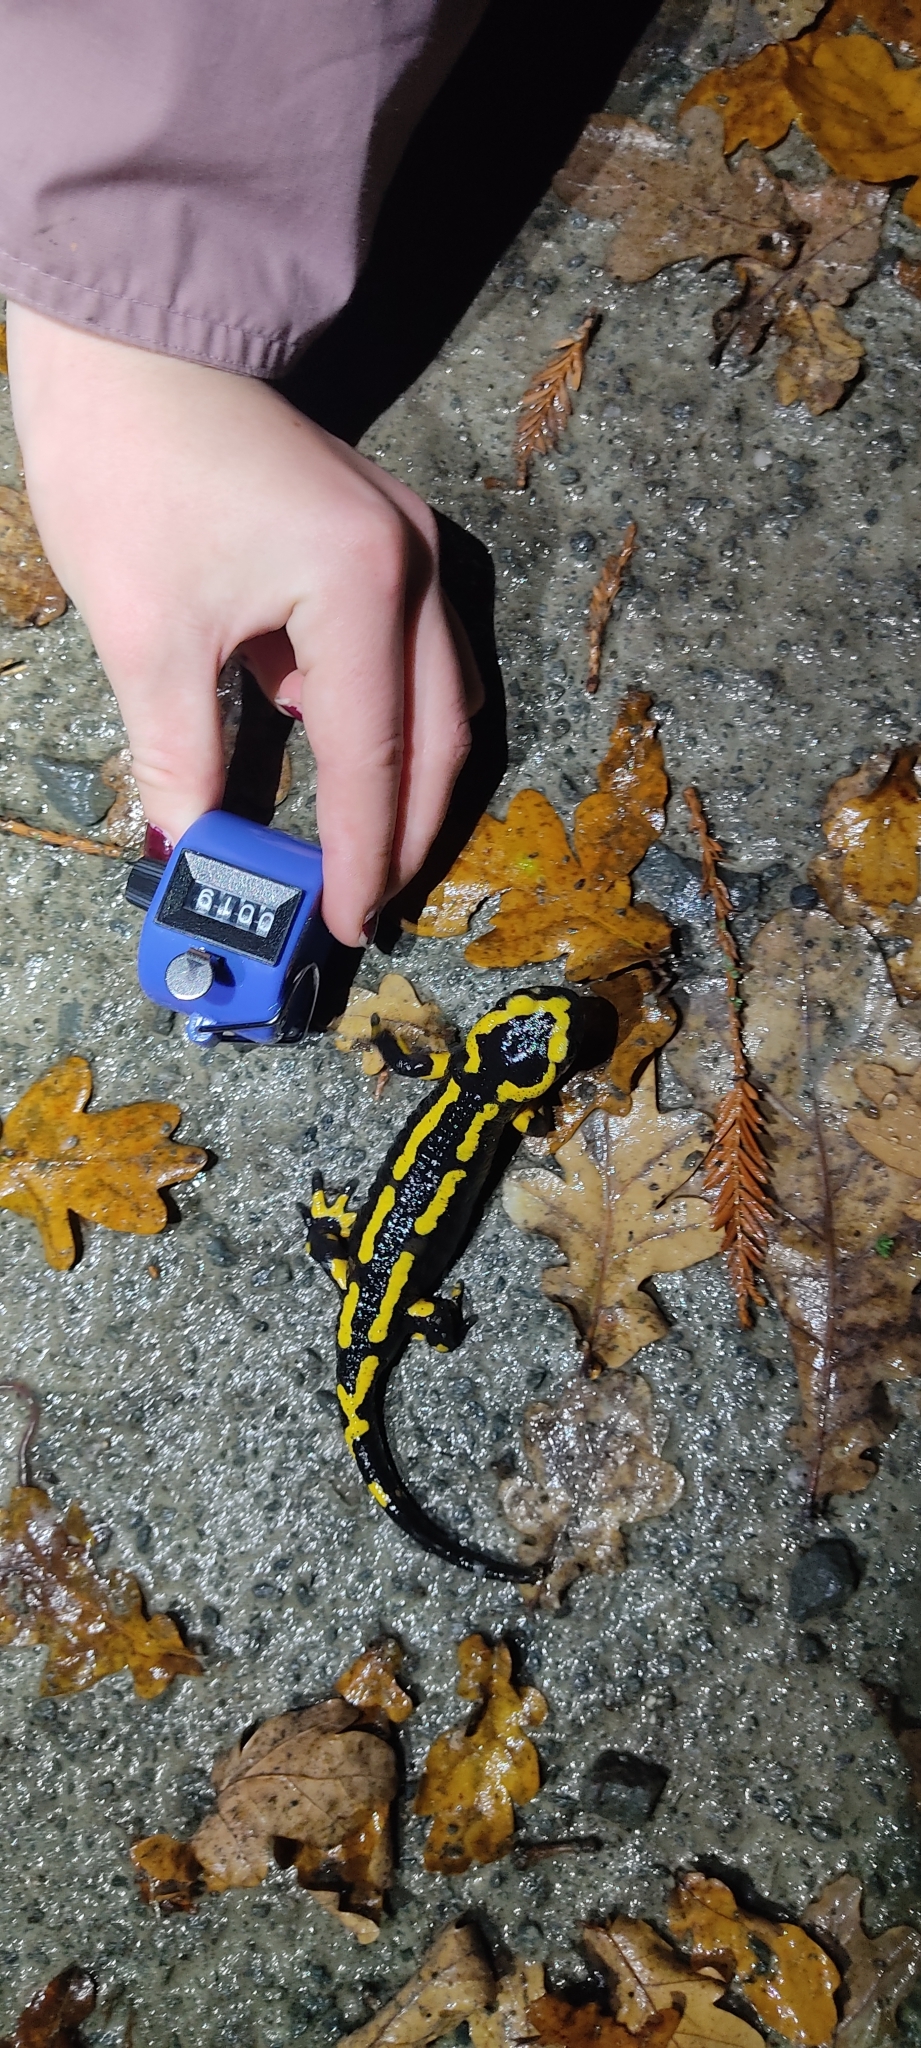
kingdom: Animalia
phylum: Chordata
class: Amphibia
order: Caudata
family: Salamandridae
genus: Salamandra
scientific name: Salamandra salamandra
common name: Fire salamander
